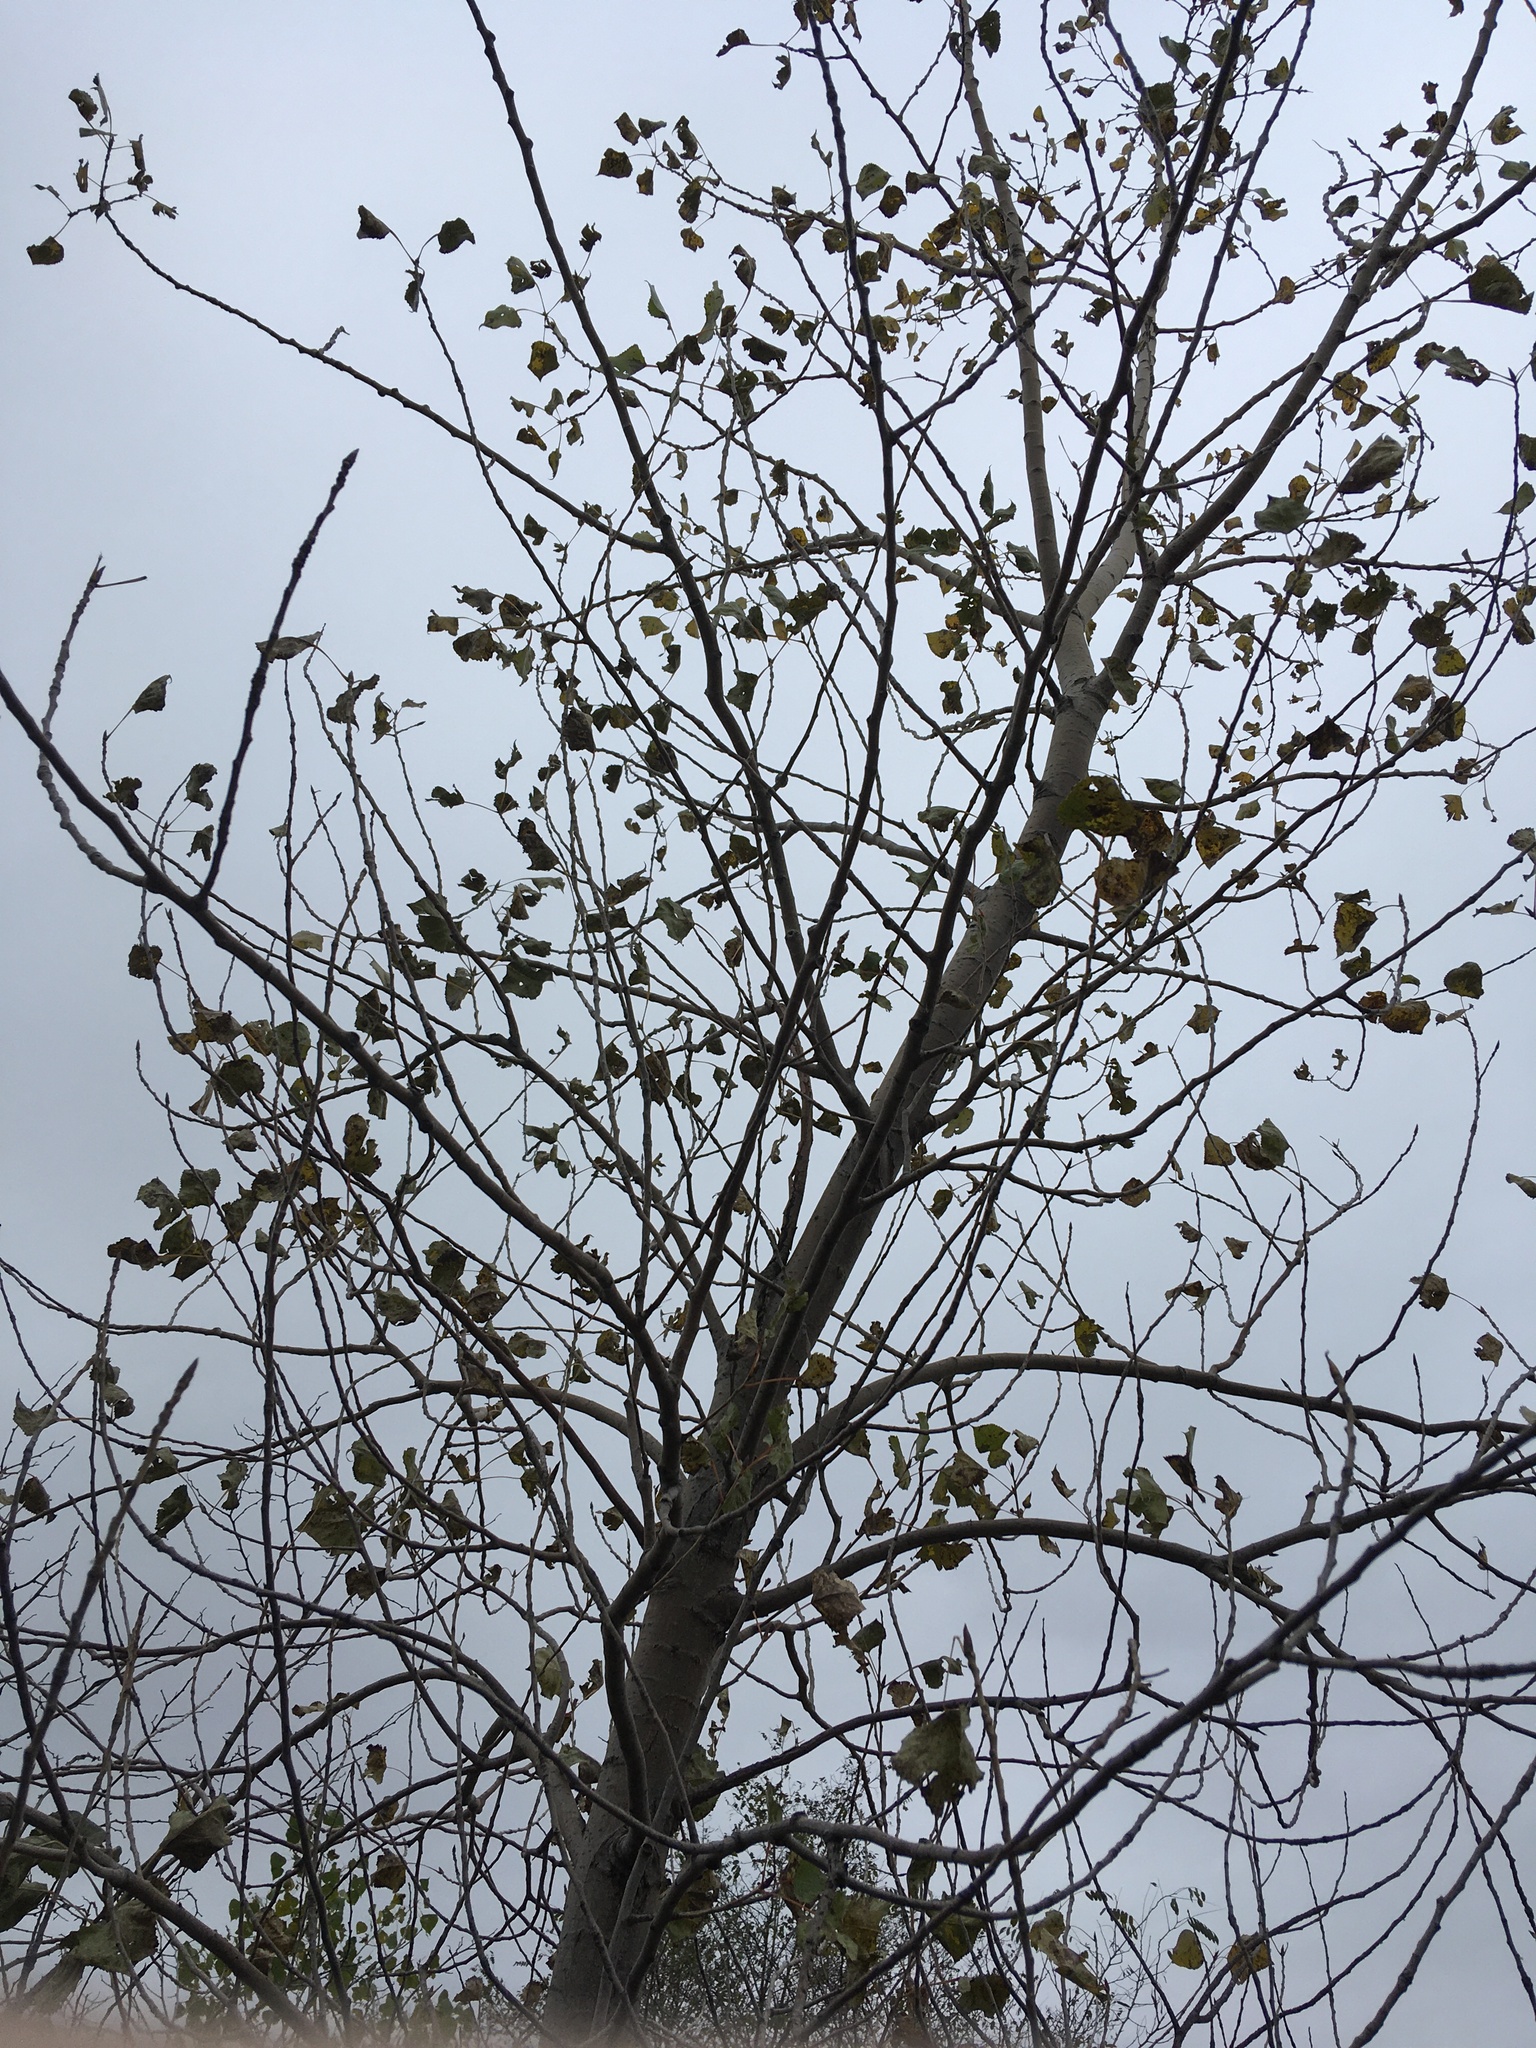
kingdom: Plantae
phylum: Tracheophyta
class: Magnoliopsida
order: Malpighiales
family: Salicaceae
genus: Populus
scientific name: Populus deltoides
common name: Eastern cottonwood
